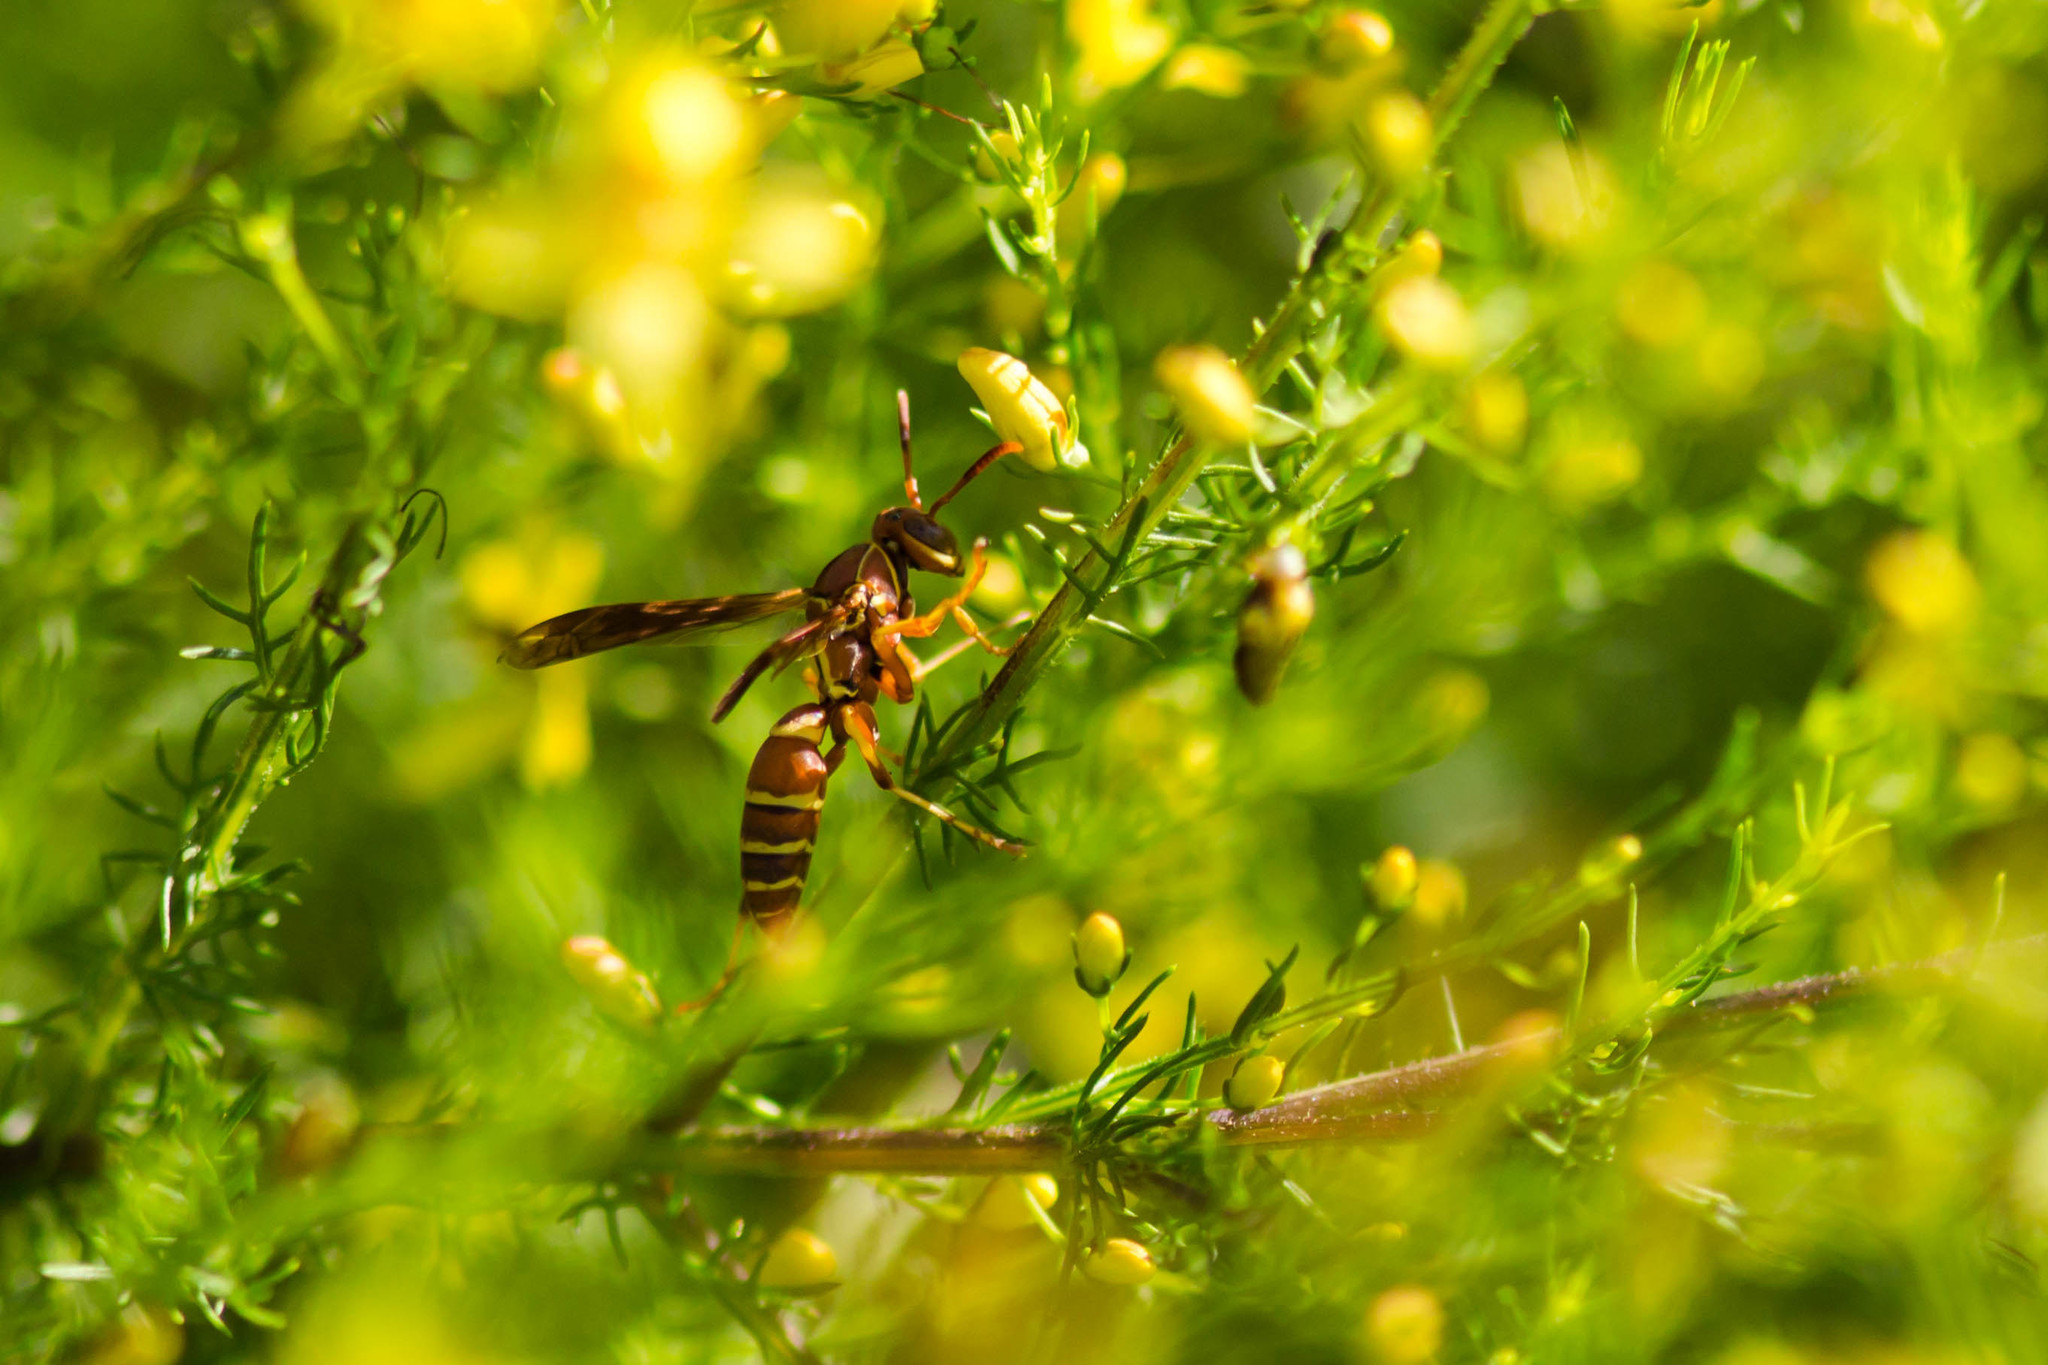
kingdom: Animalia
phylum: Arthropoda
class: Insecta
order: Hymenoptera
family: Eumenidae
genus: Polistes
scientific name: Polistes bellicosus
